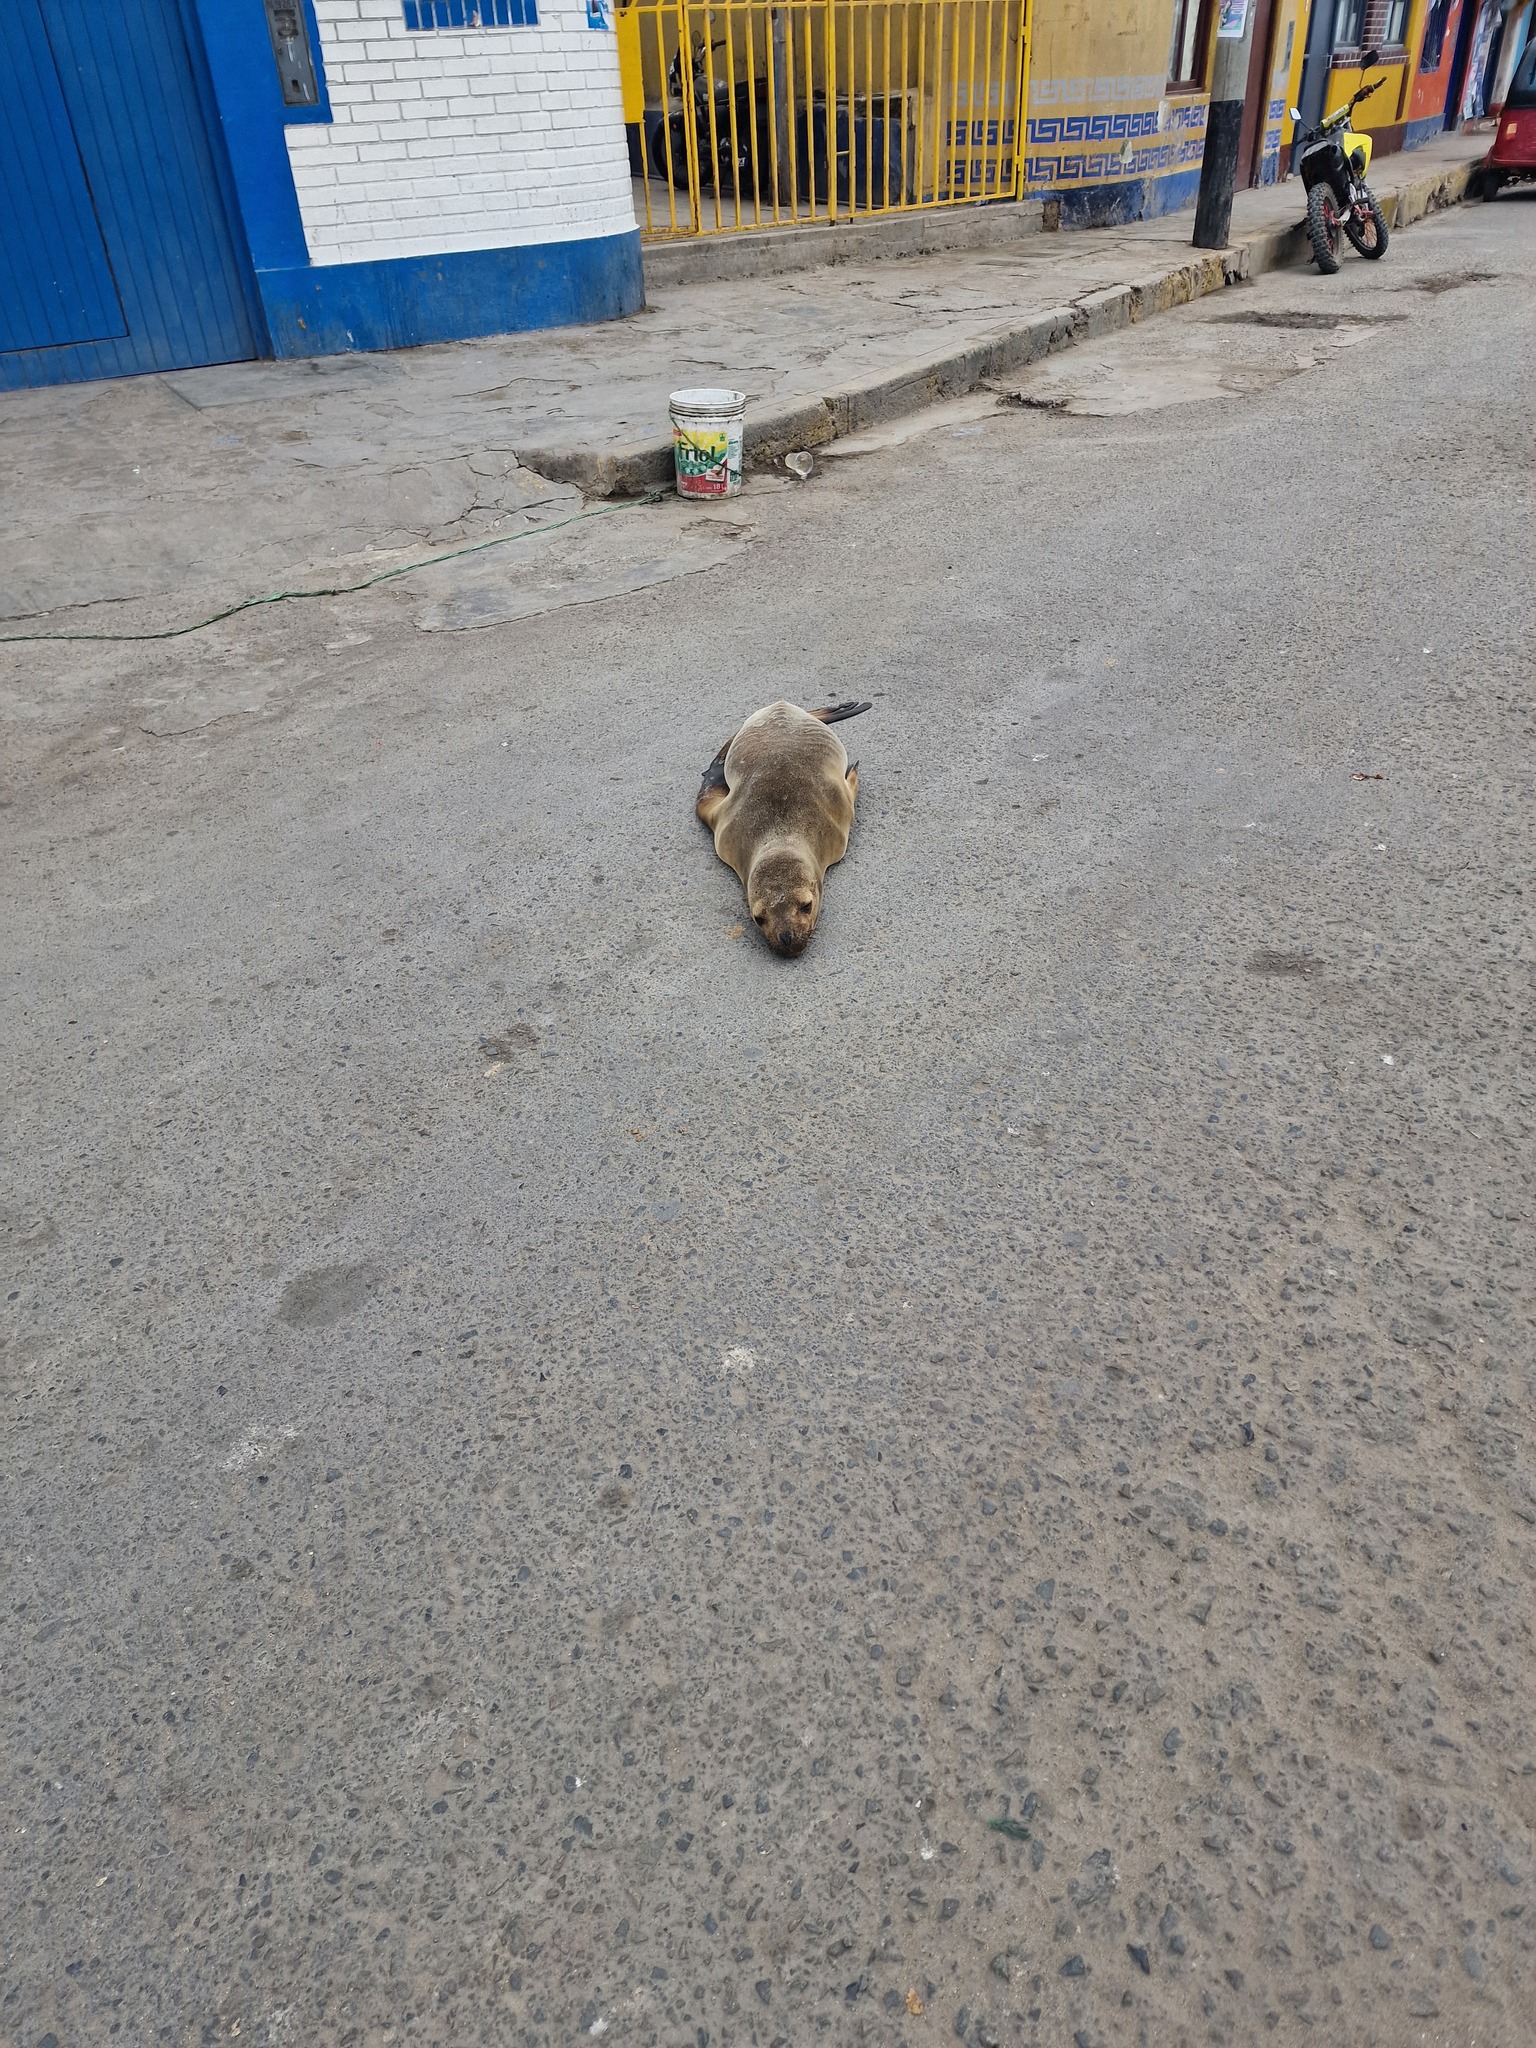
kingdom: Animalia
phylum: Chordata
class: Mammalia
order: Carnivora
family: Otariidae
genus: Otaria
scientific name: Otaria byronia
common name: South american sea lion
